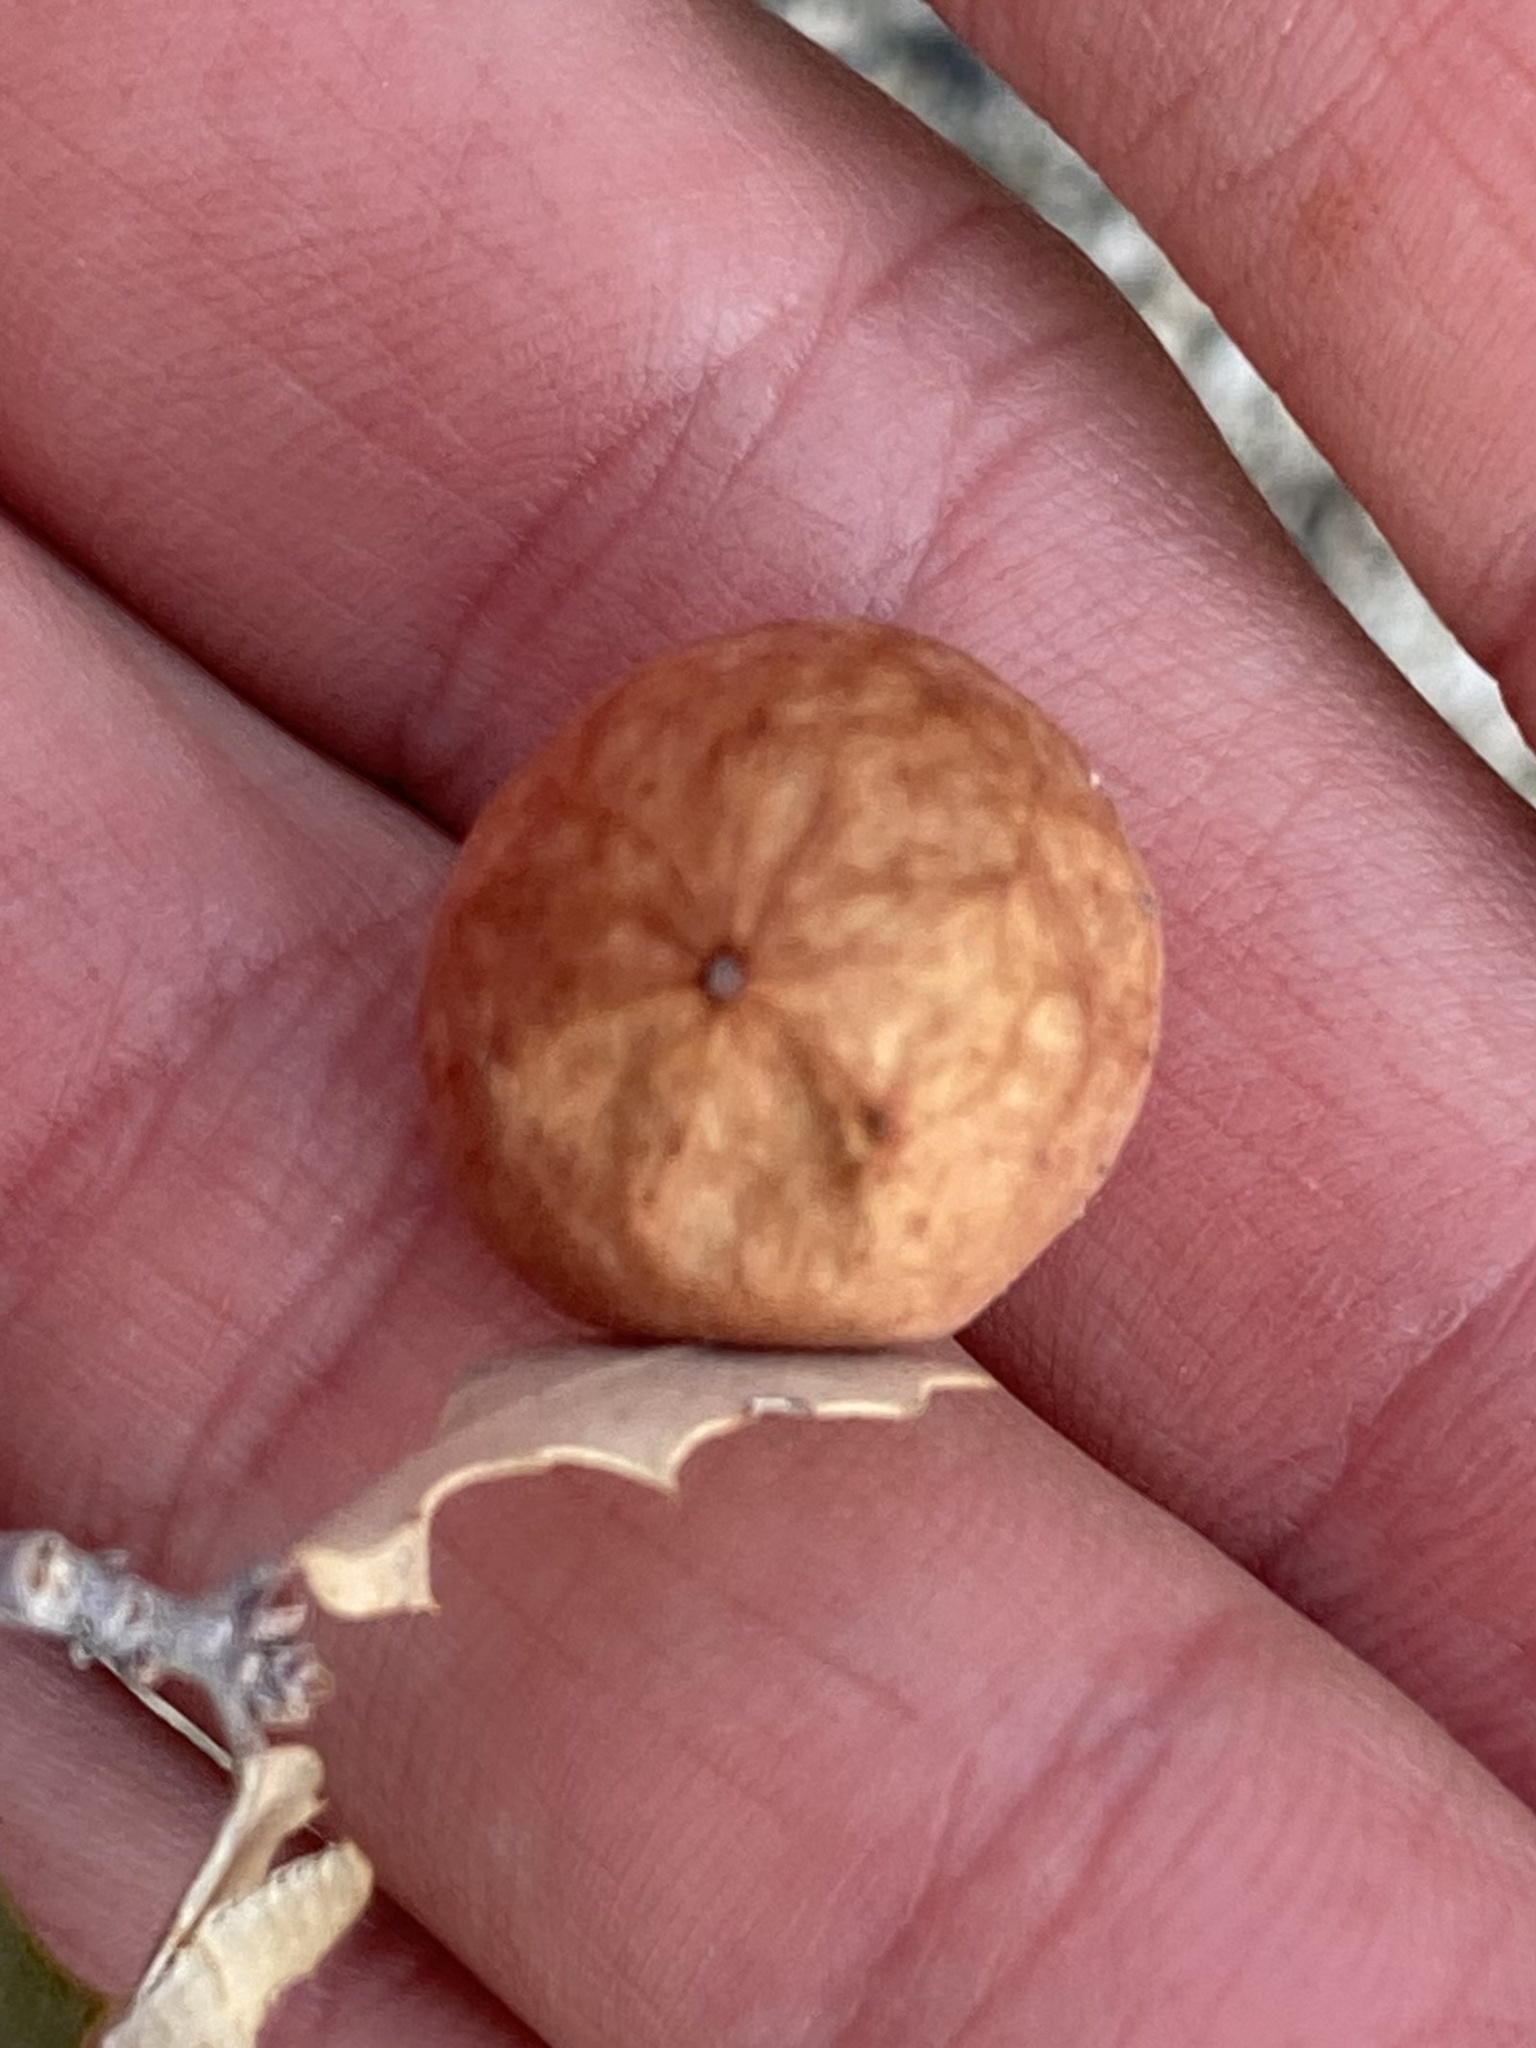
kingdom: Animalia
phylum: Arthropoda
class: Insecta
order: Hymenoptera
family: Cynipidae
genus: Atrusca
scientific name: Atrusca
